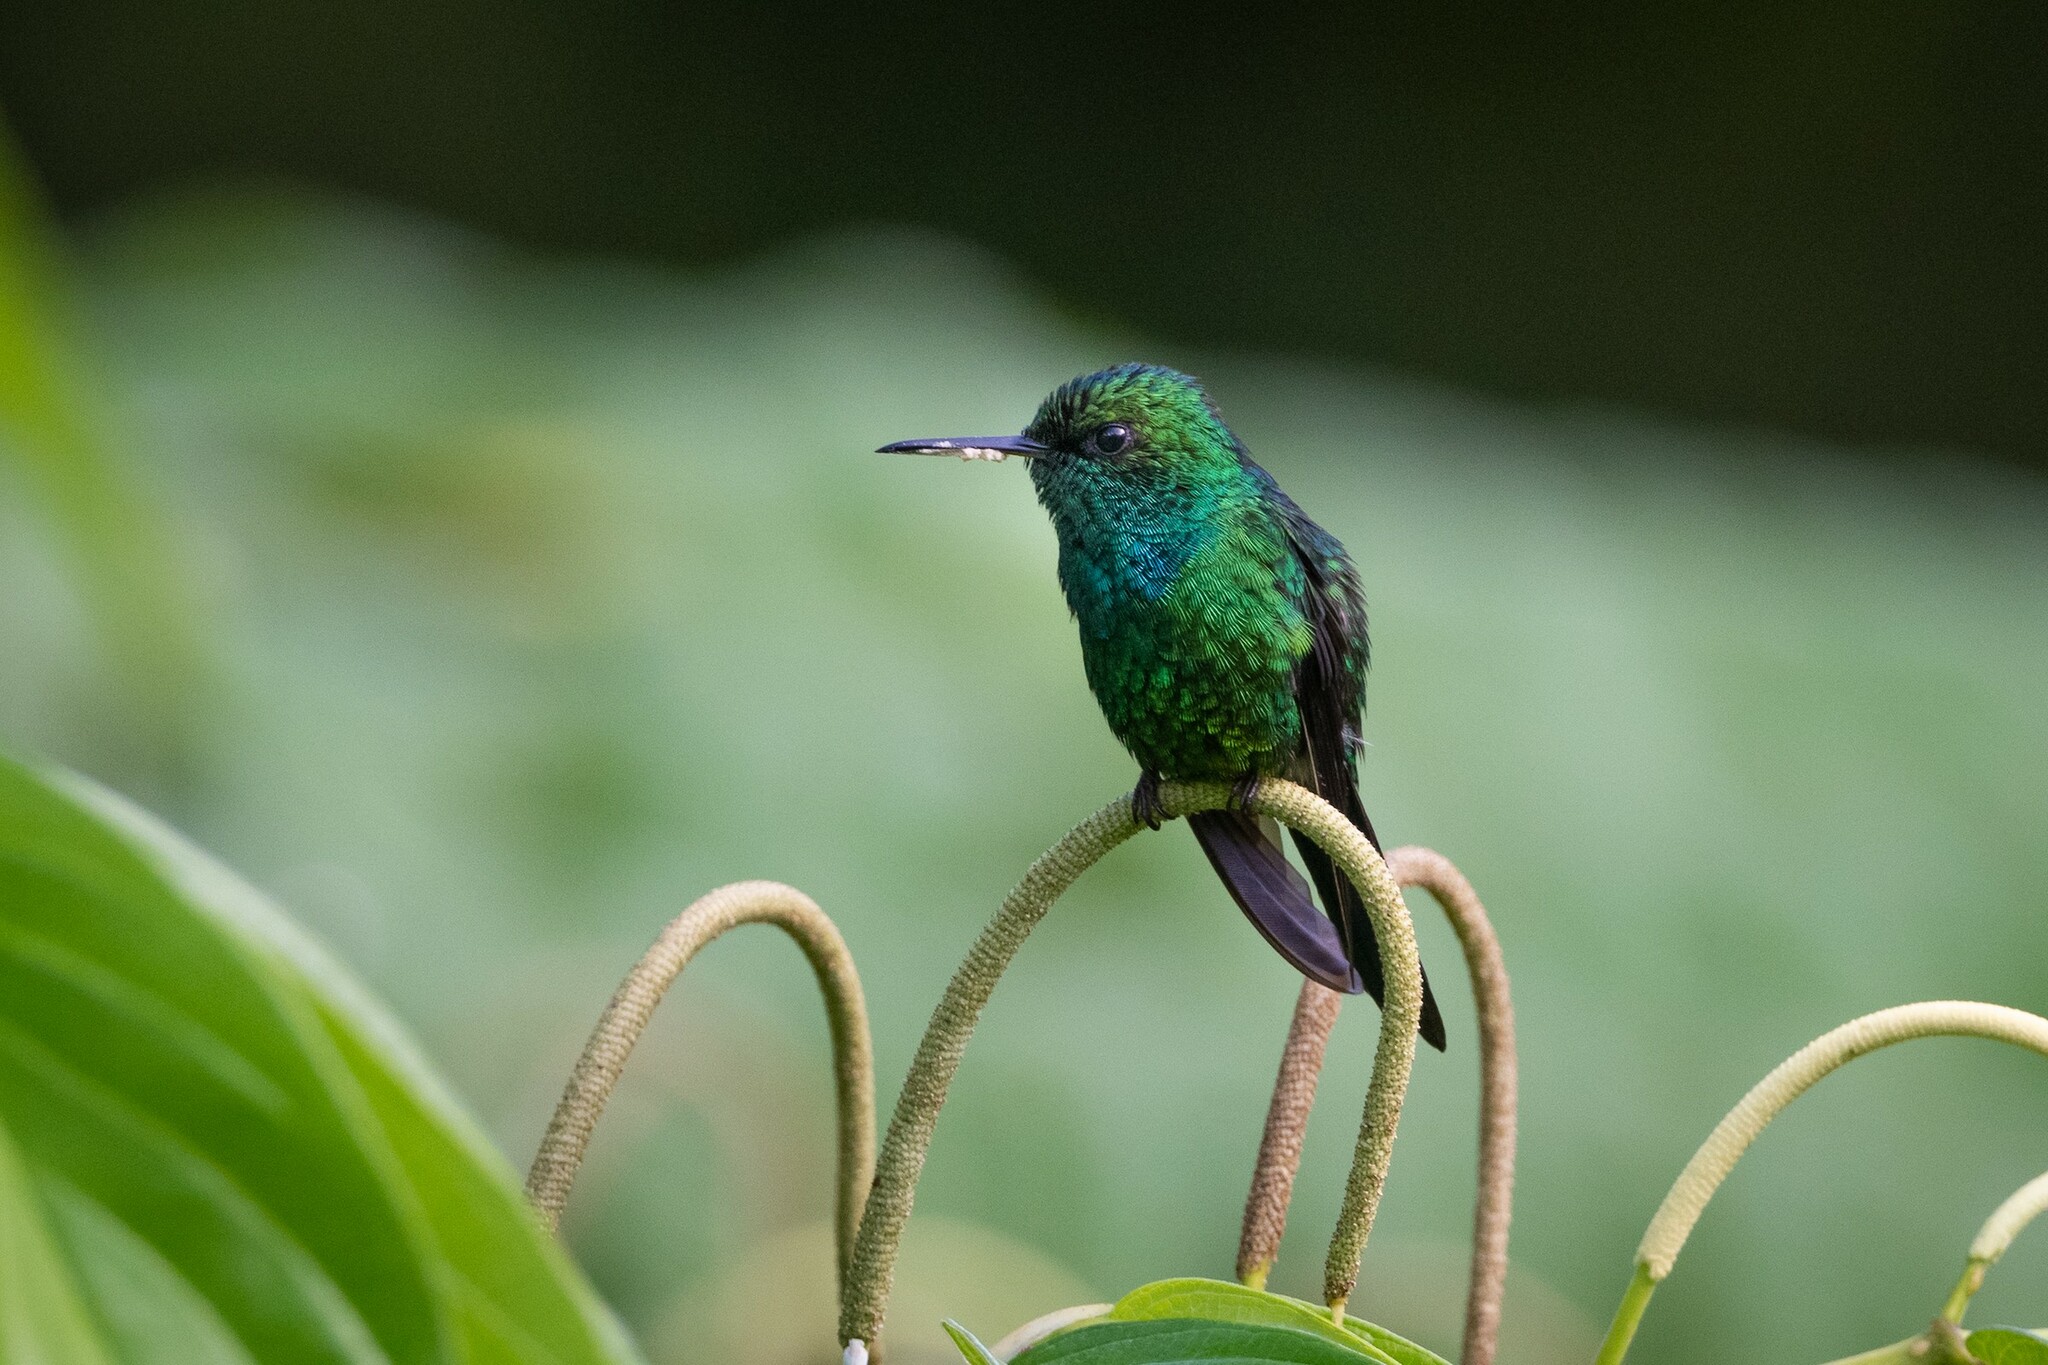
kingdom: Animalia
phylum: Chordata
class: Aves
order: Apodiformes
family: Trochilidae
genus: Riccordia
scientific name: Riccordia maugaeus
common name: Puerto rican emerald
